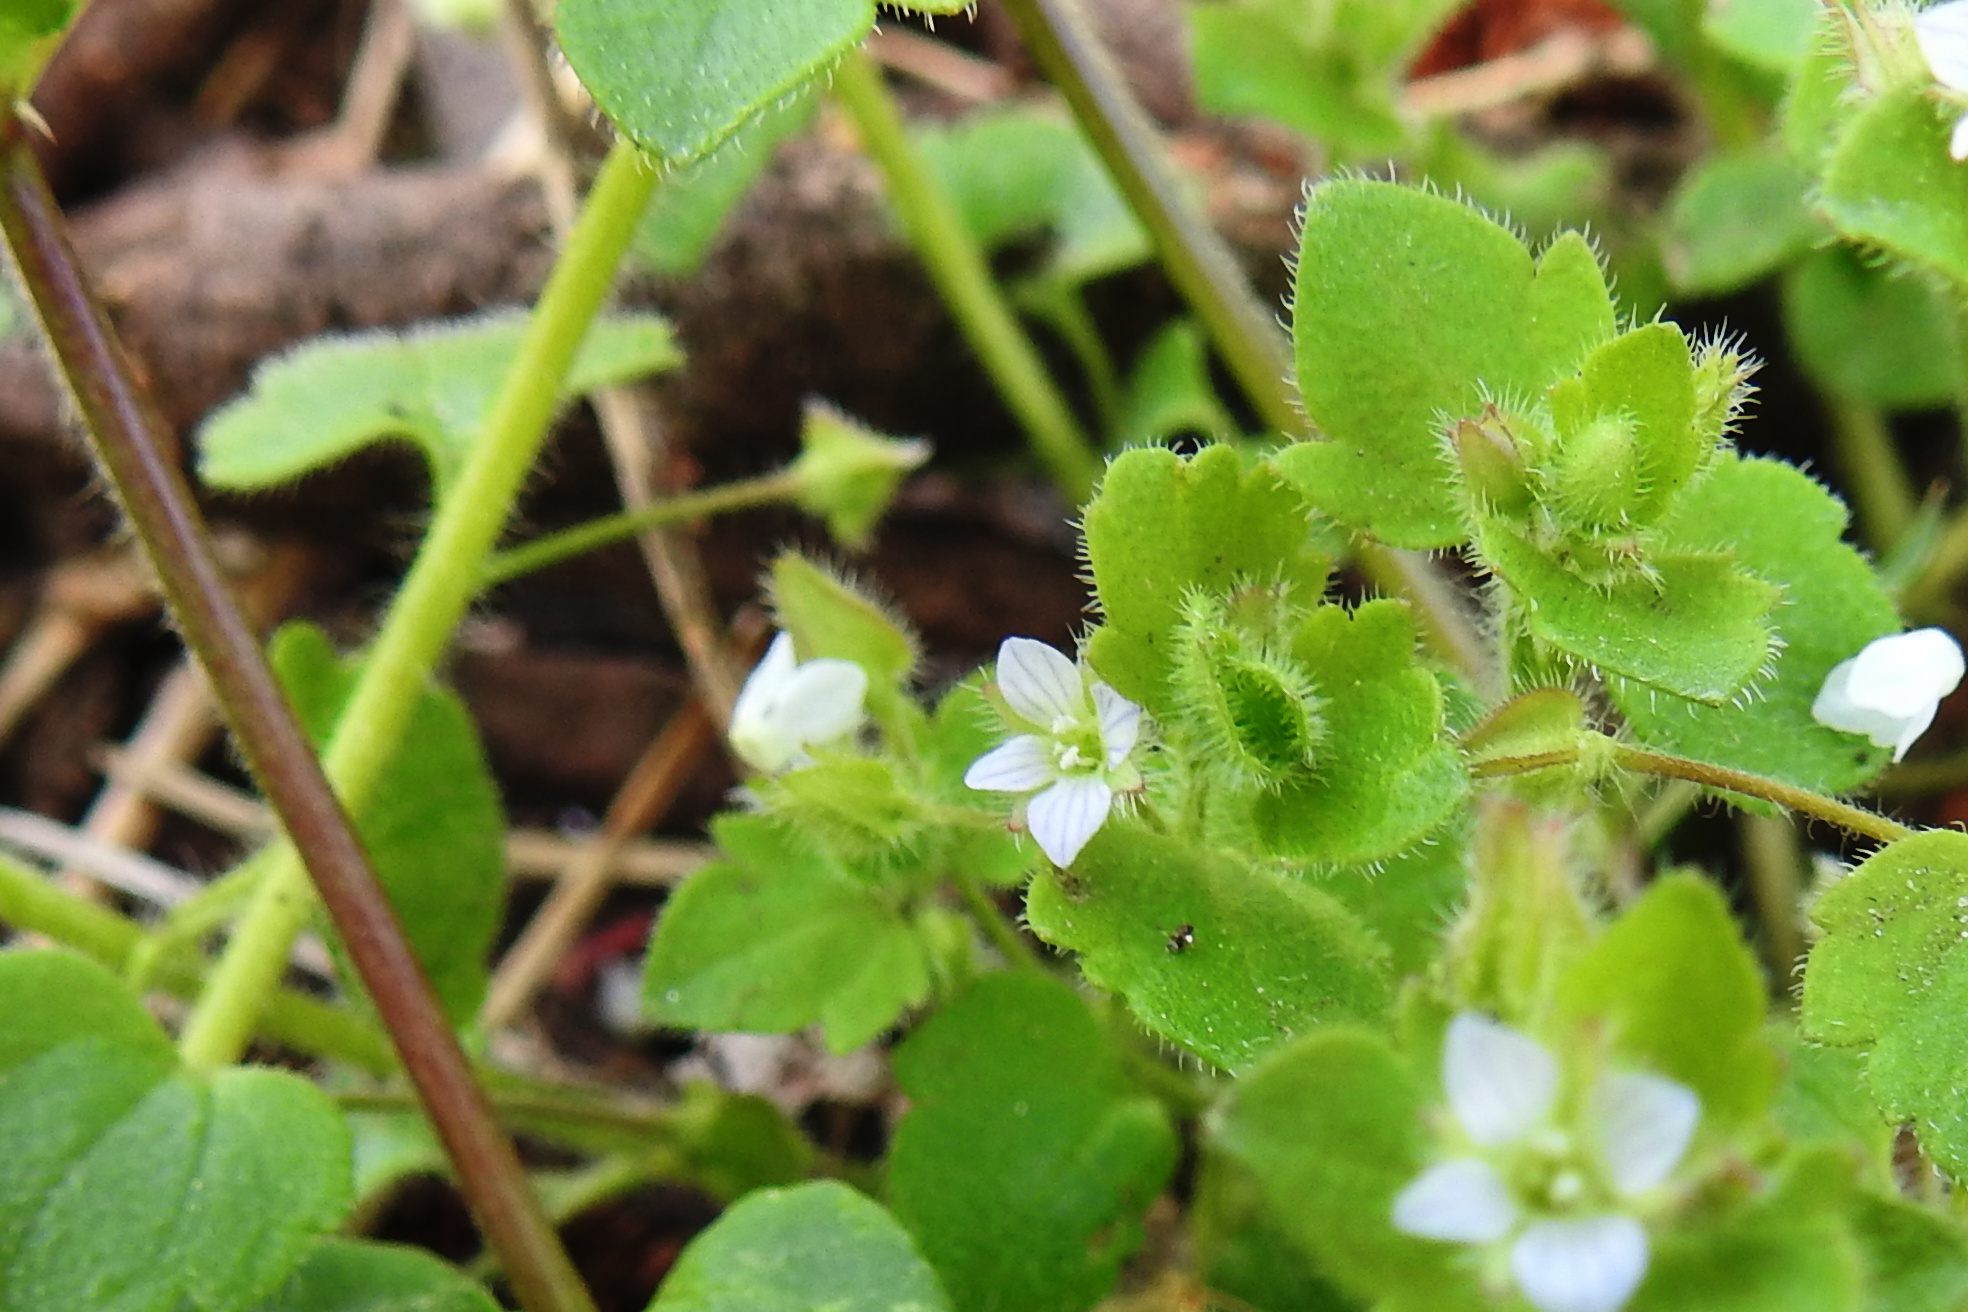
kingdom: Plantae
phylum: Tracheophyta
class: Magnoliopsida
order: Lamiales
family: Plantaginaceae
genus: Veronica
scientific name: Veronica sublobata
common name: False ivy-leaved speedwell
